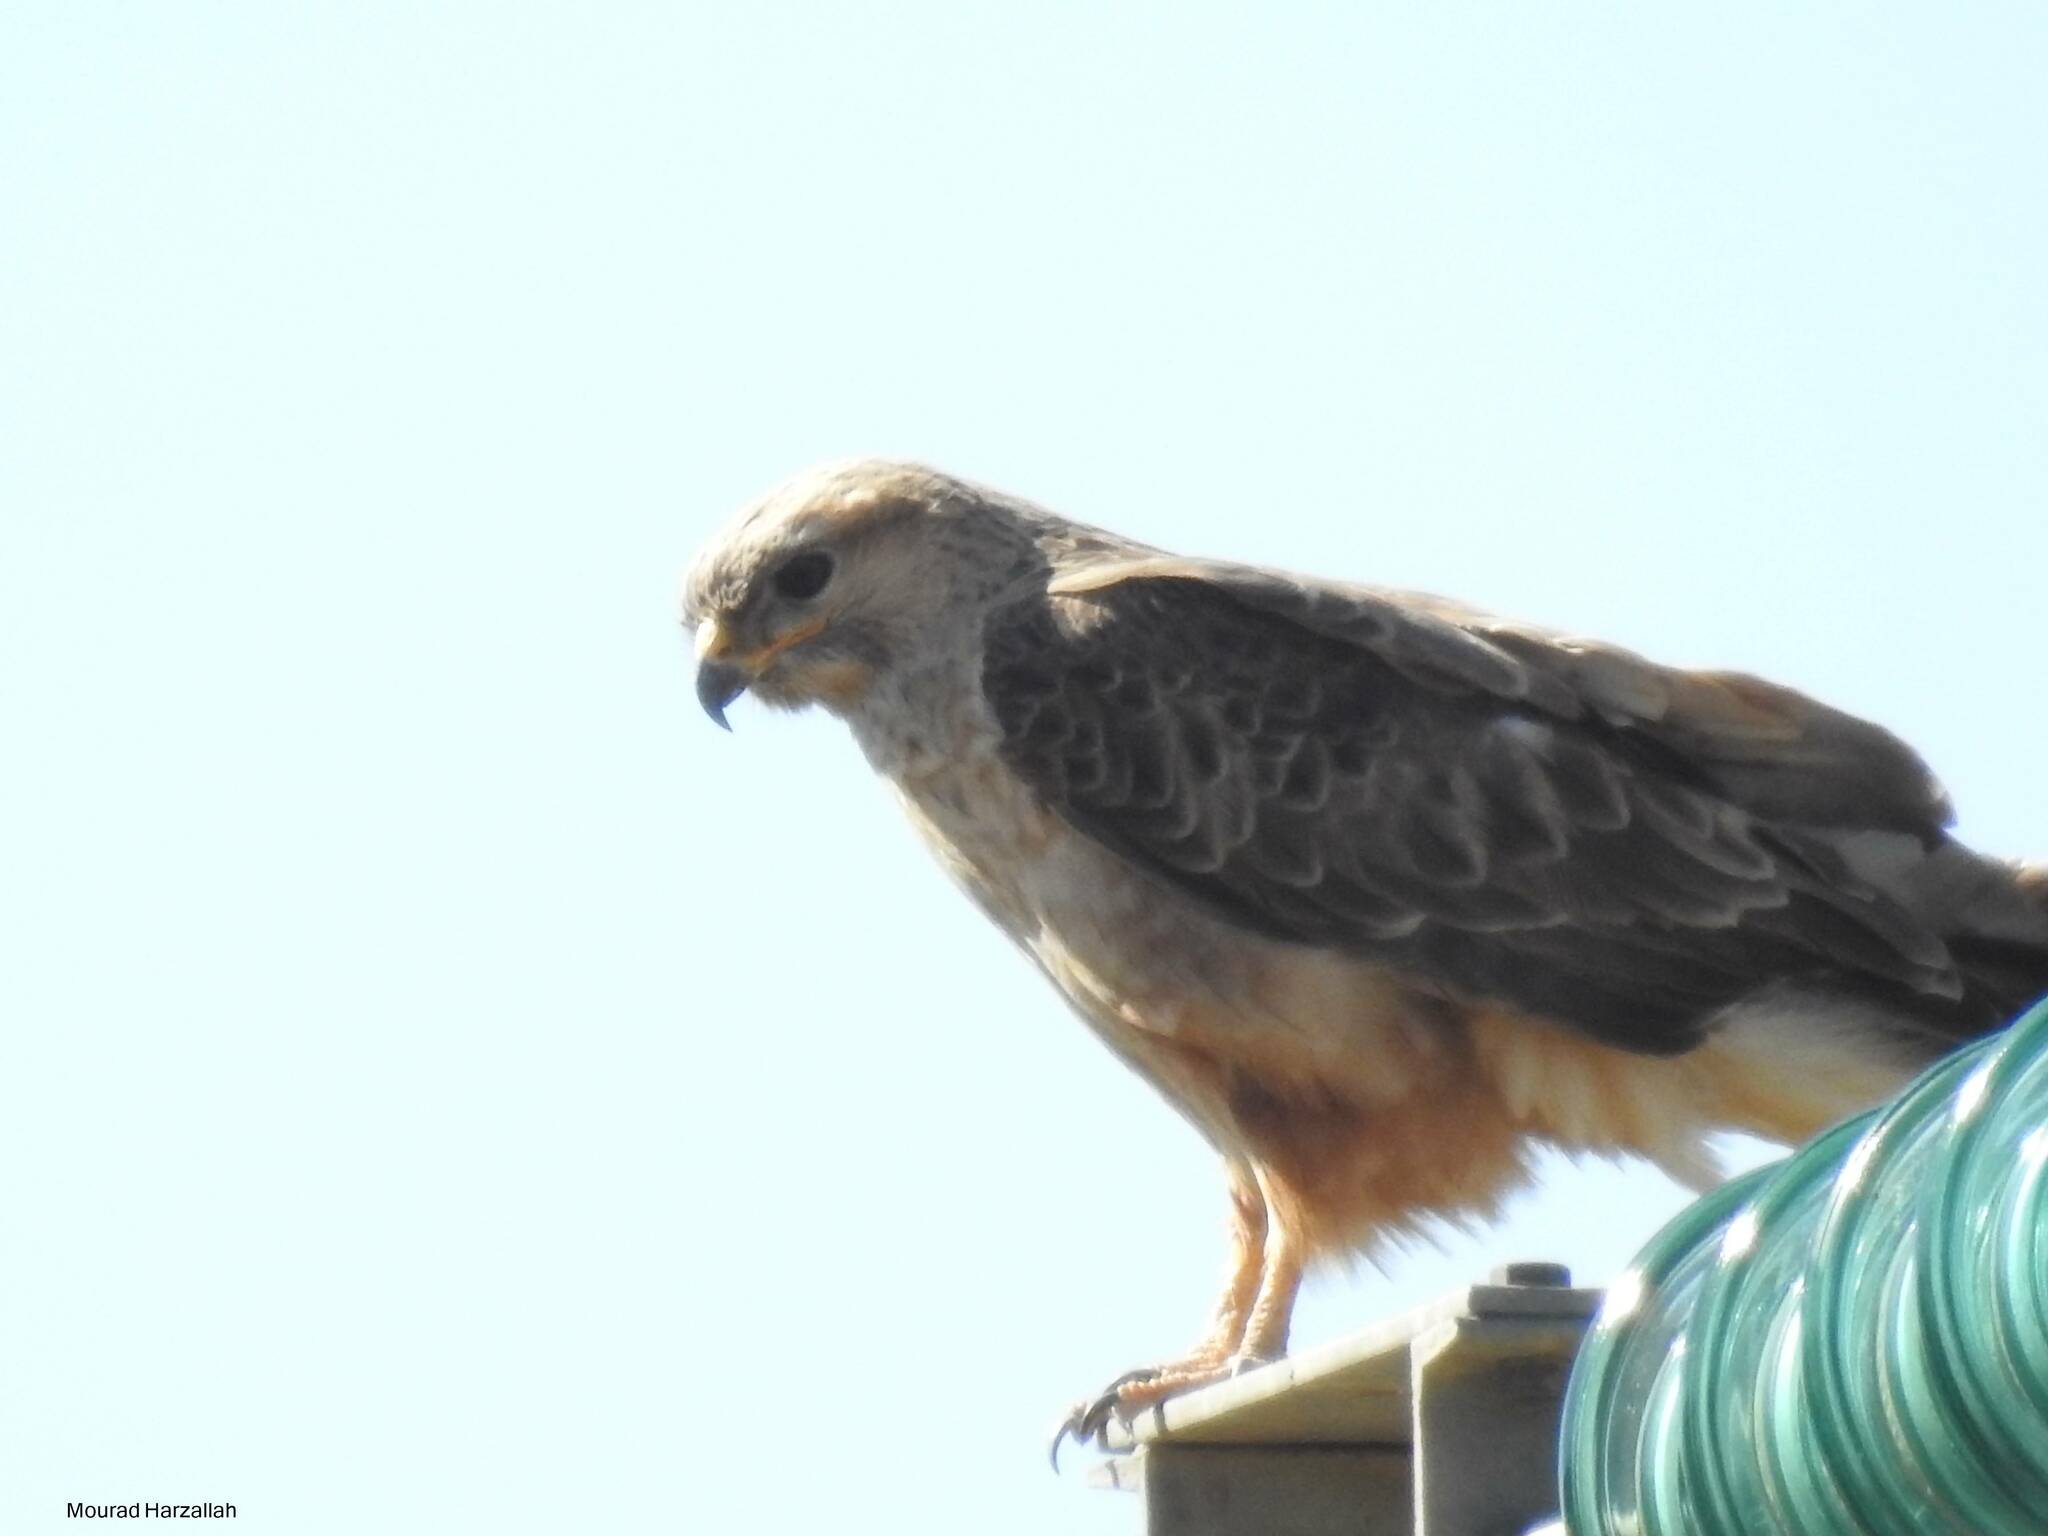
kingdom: Animalia
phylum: Chordata
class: Aves
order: Accipitriformes
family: Accipitridae
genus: Buteo
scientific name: Buteo rufinus
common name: Long-legged buzzard
